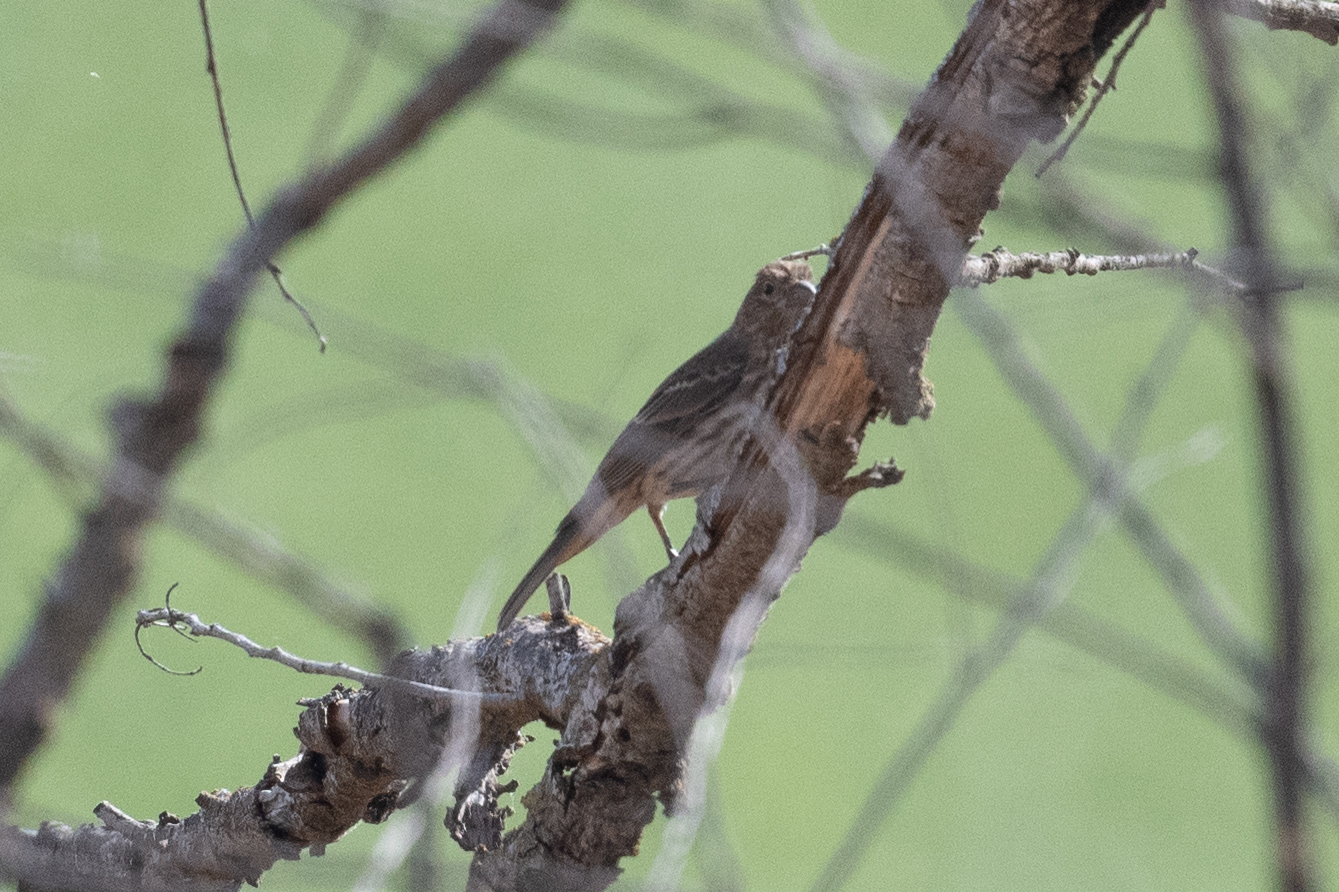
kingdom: Animalia
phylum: Chordata
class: Aves
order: Passeriformes
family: Fringillidae
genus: Haemorhous
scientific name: Haemorhous mexicanus
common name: House finch
